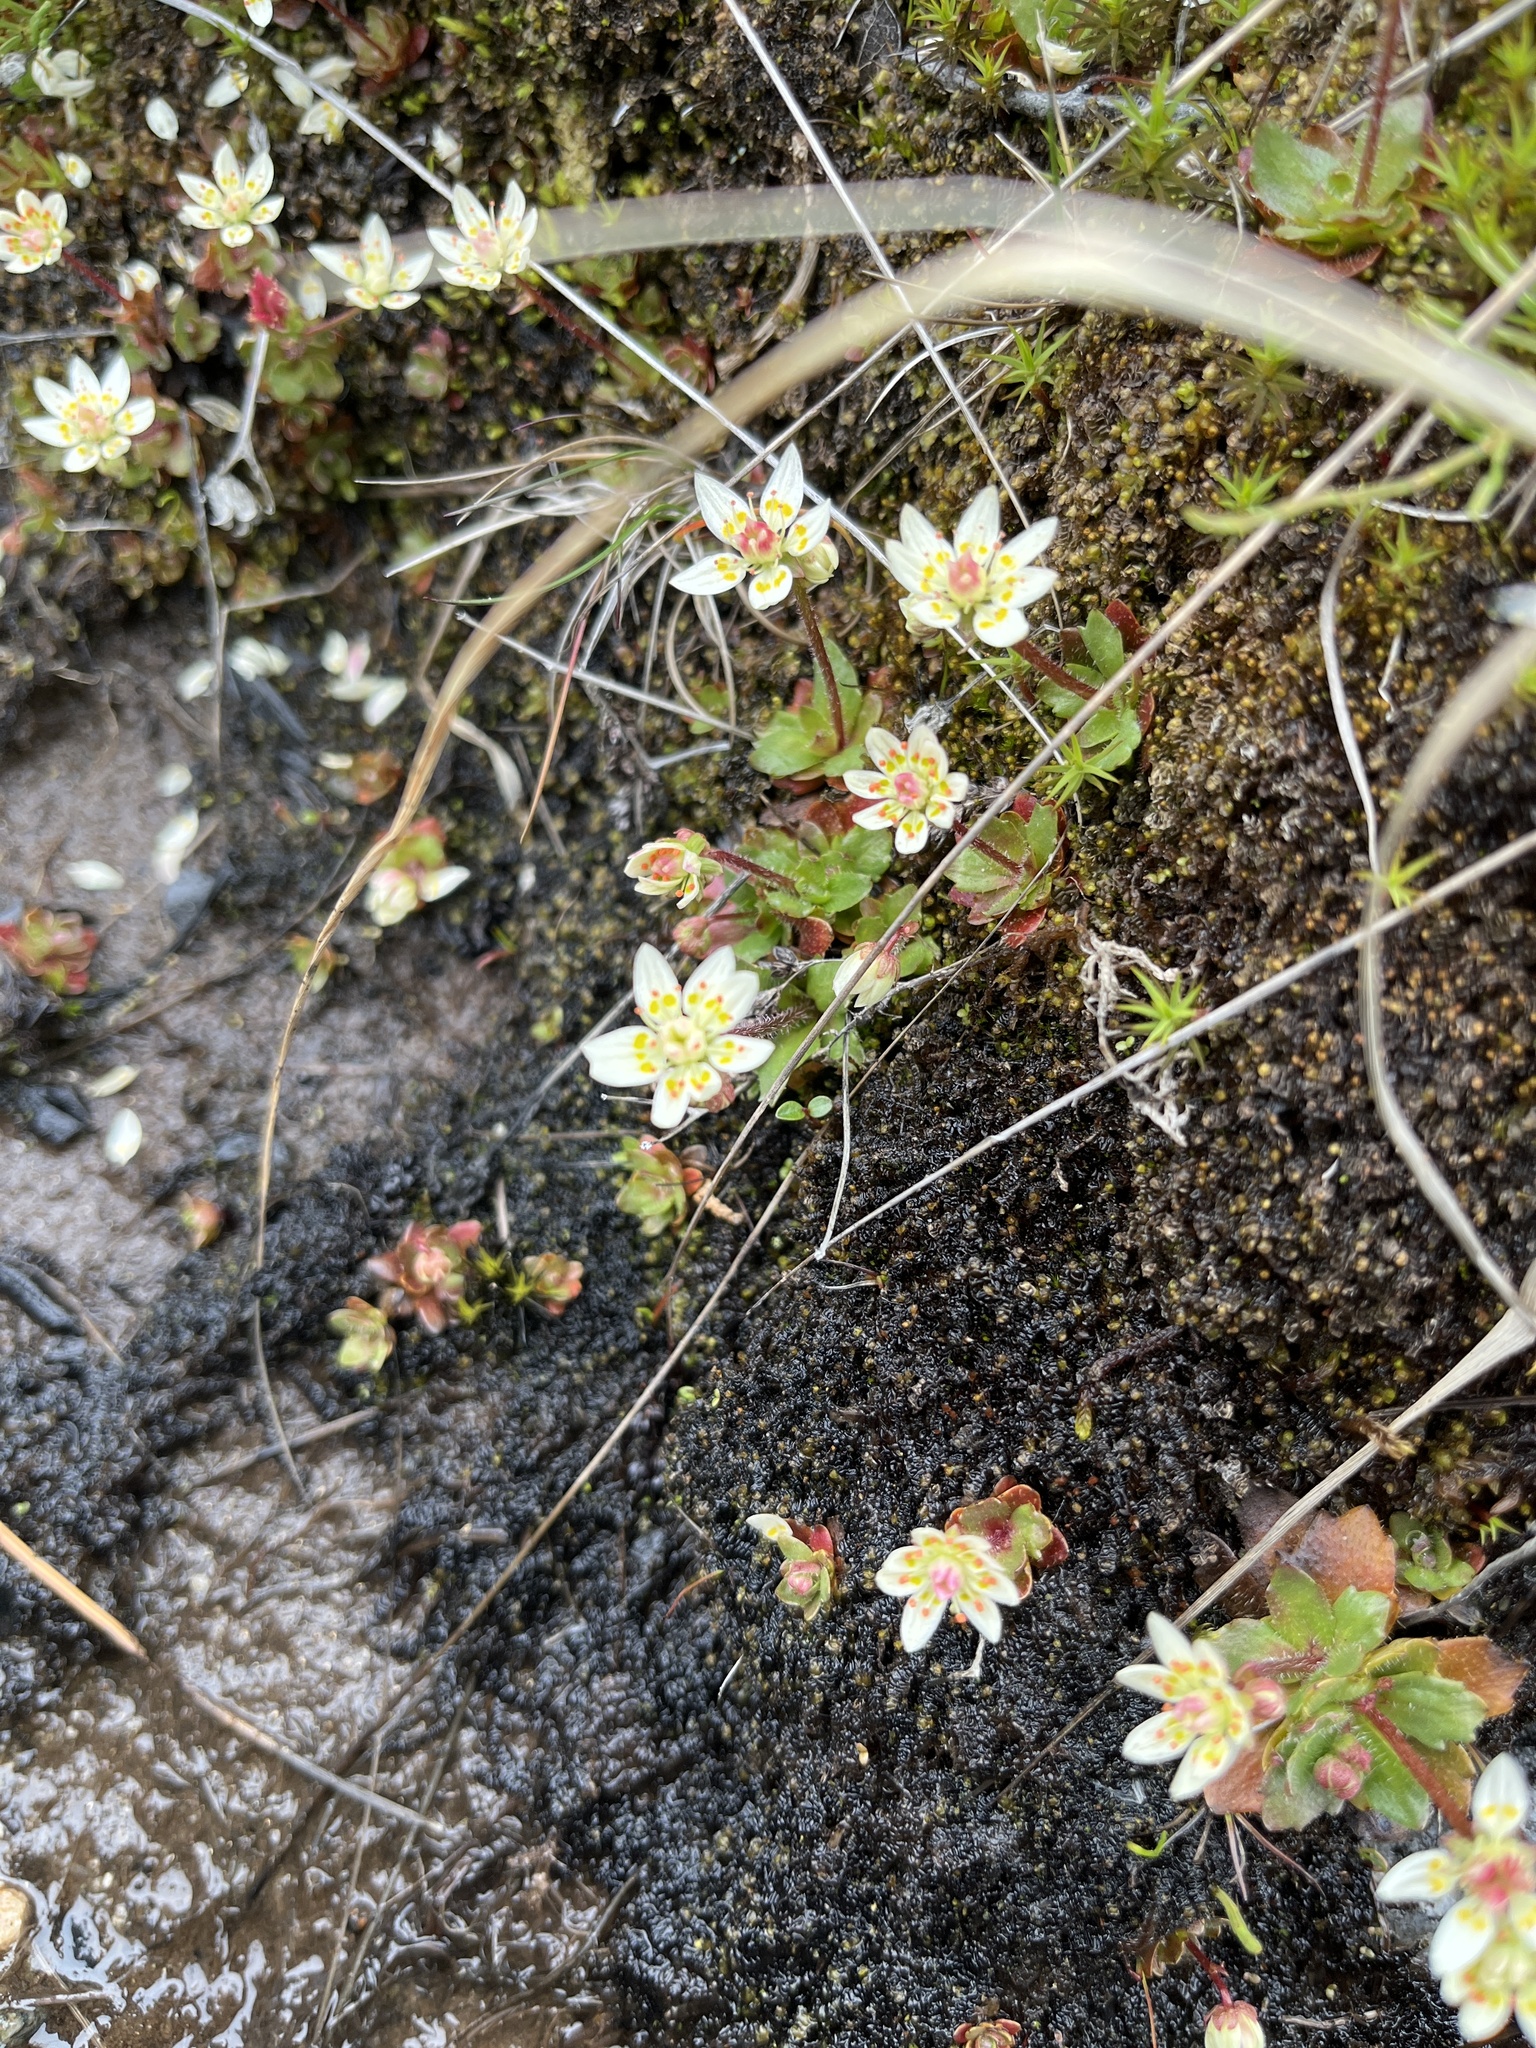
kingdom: Plantae
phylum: Tracheophyta
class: Magnoliopsida
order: Saxifragales
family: Saxifragaceae
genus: Micranthes
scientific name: Micranthes stellaris
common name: Starry saxifrage
